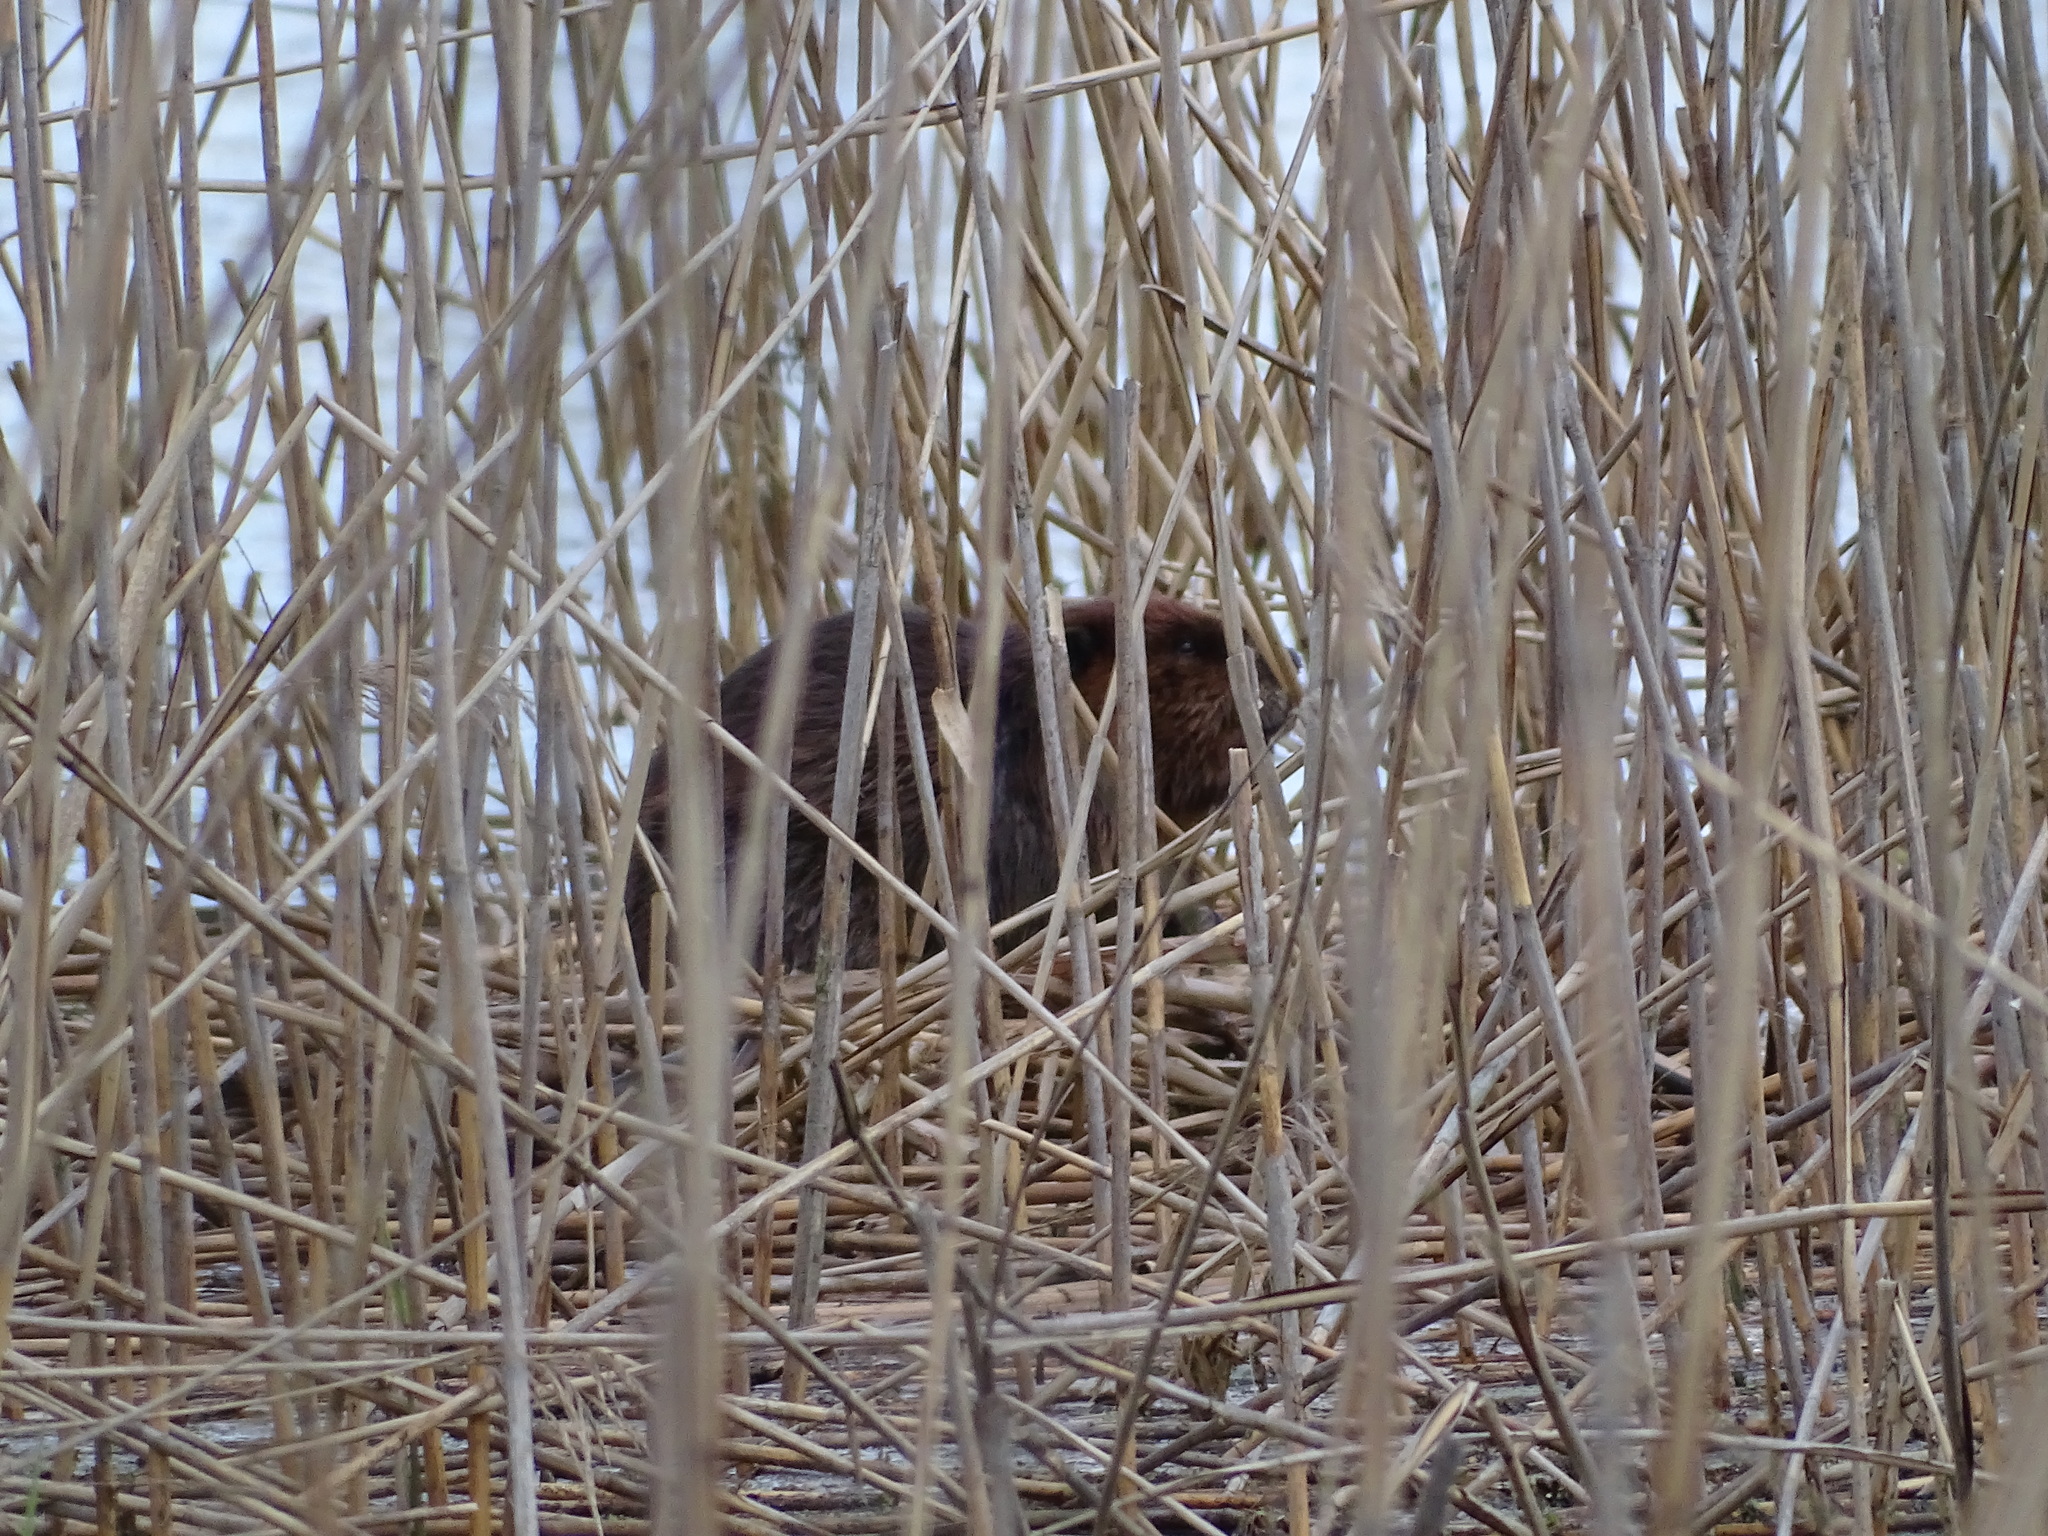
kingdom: Animalia
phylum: Chordata
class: Mammalia
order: Rodentia
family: Castoridae
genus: Castor
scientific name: Castor canadensis
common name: American beaver
